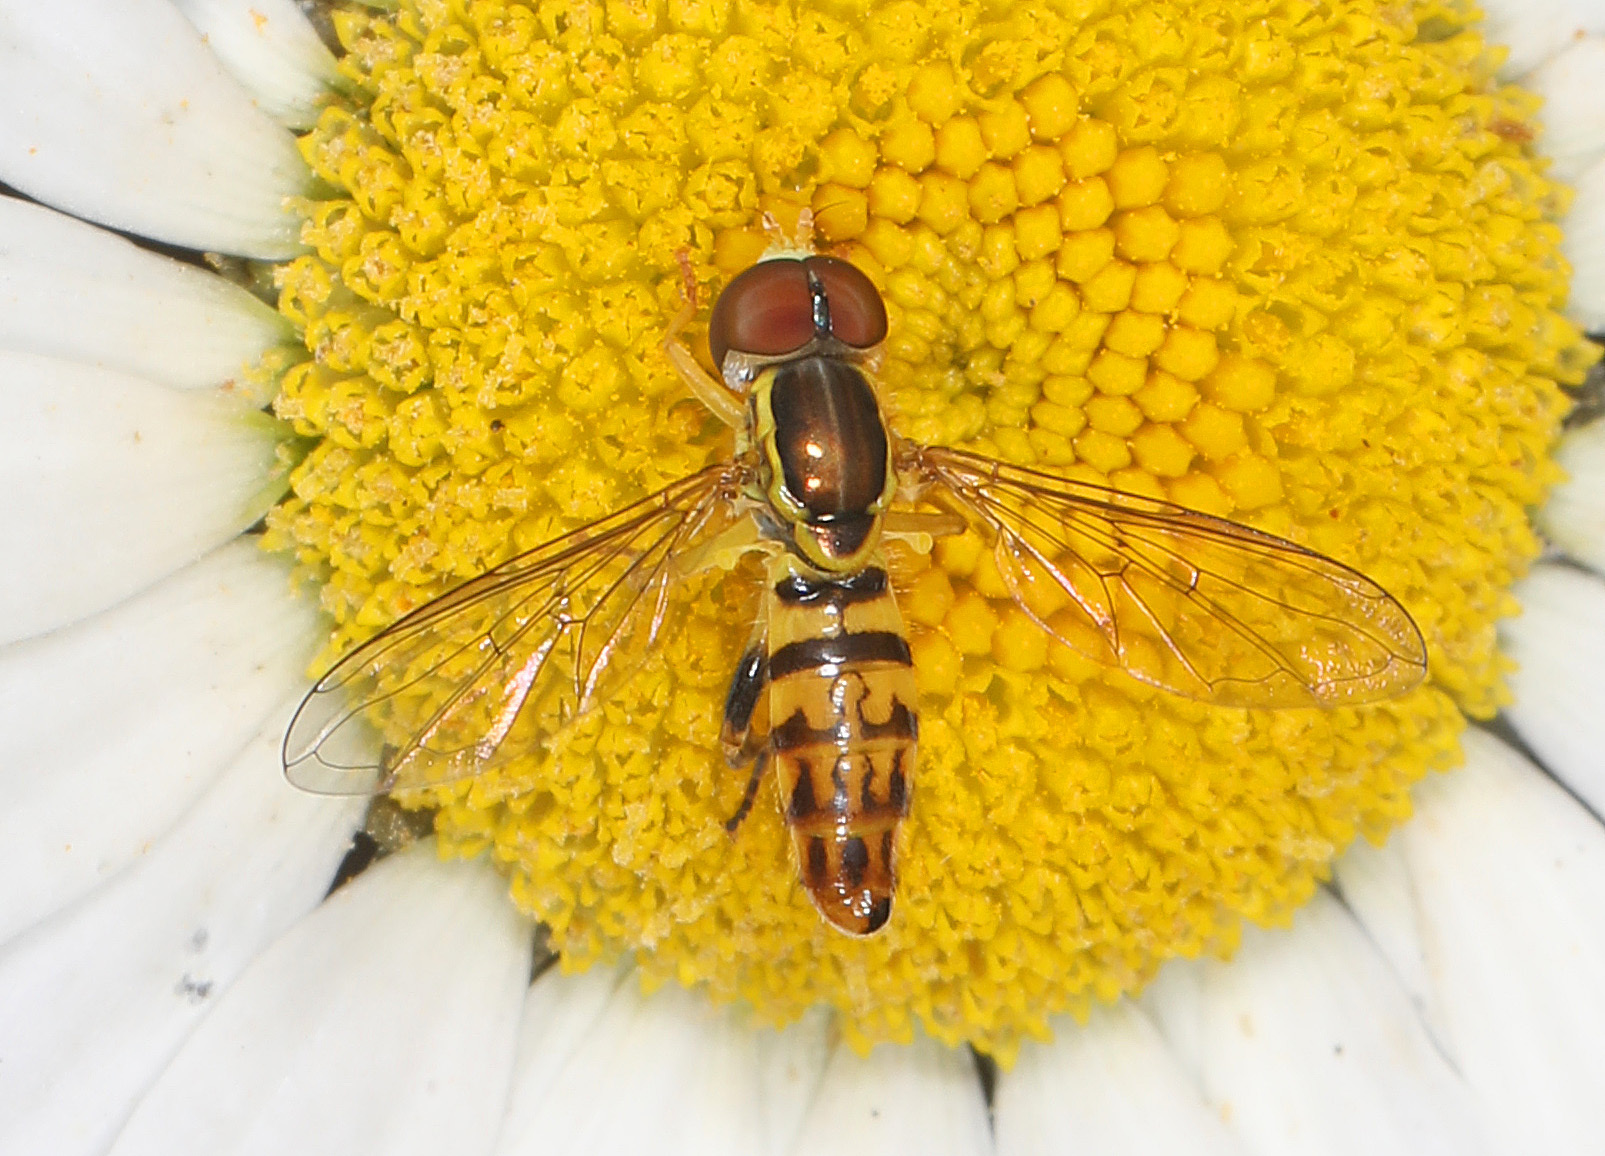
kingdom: Animalia
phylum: Arthropoda
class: Insecta
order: Diptera
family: Syrphidae
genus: Toxomerus
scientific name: Toxomerus geminatus
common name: Eastern calligrapher
